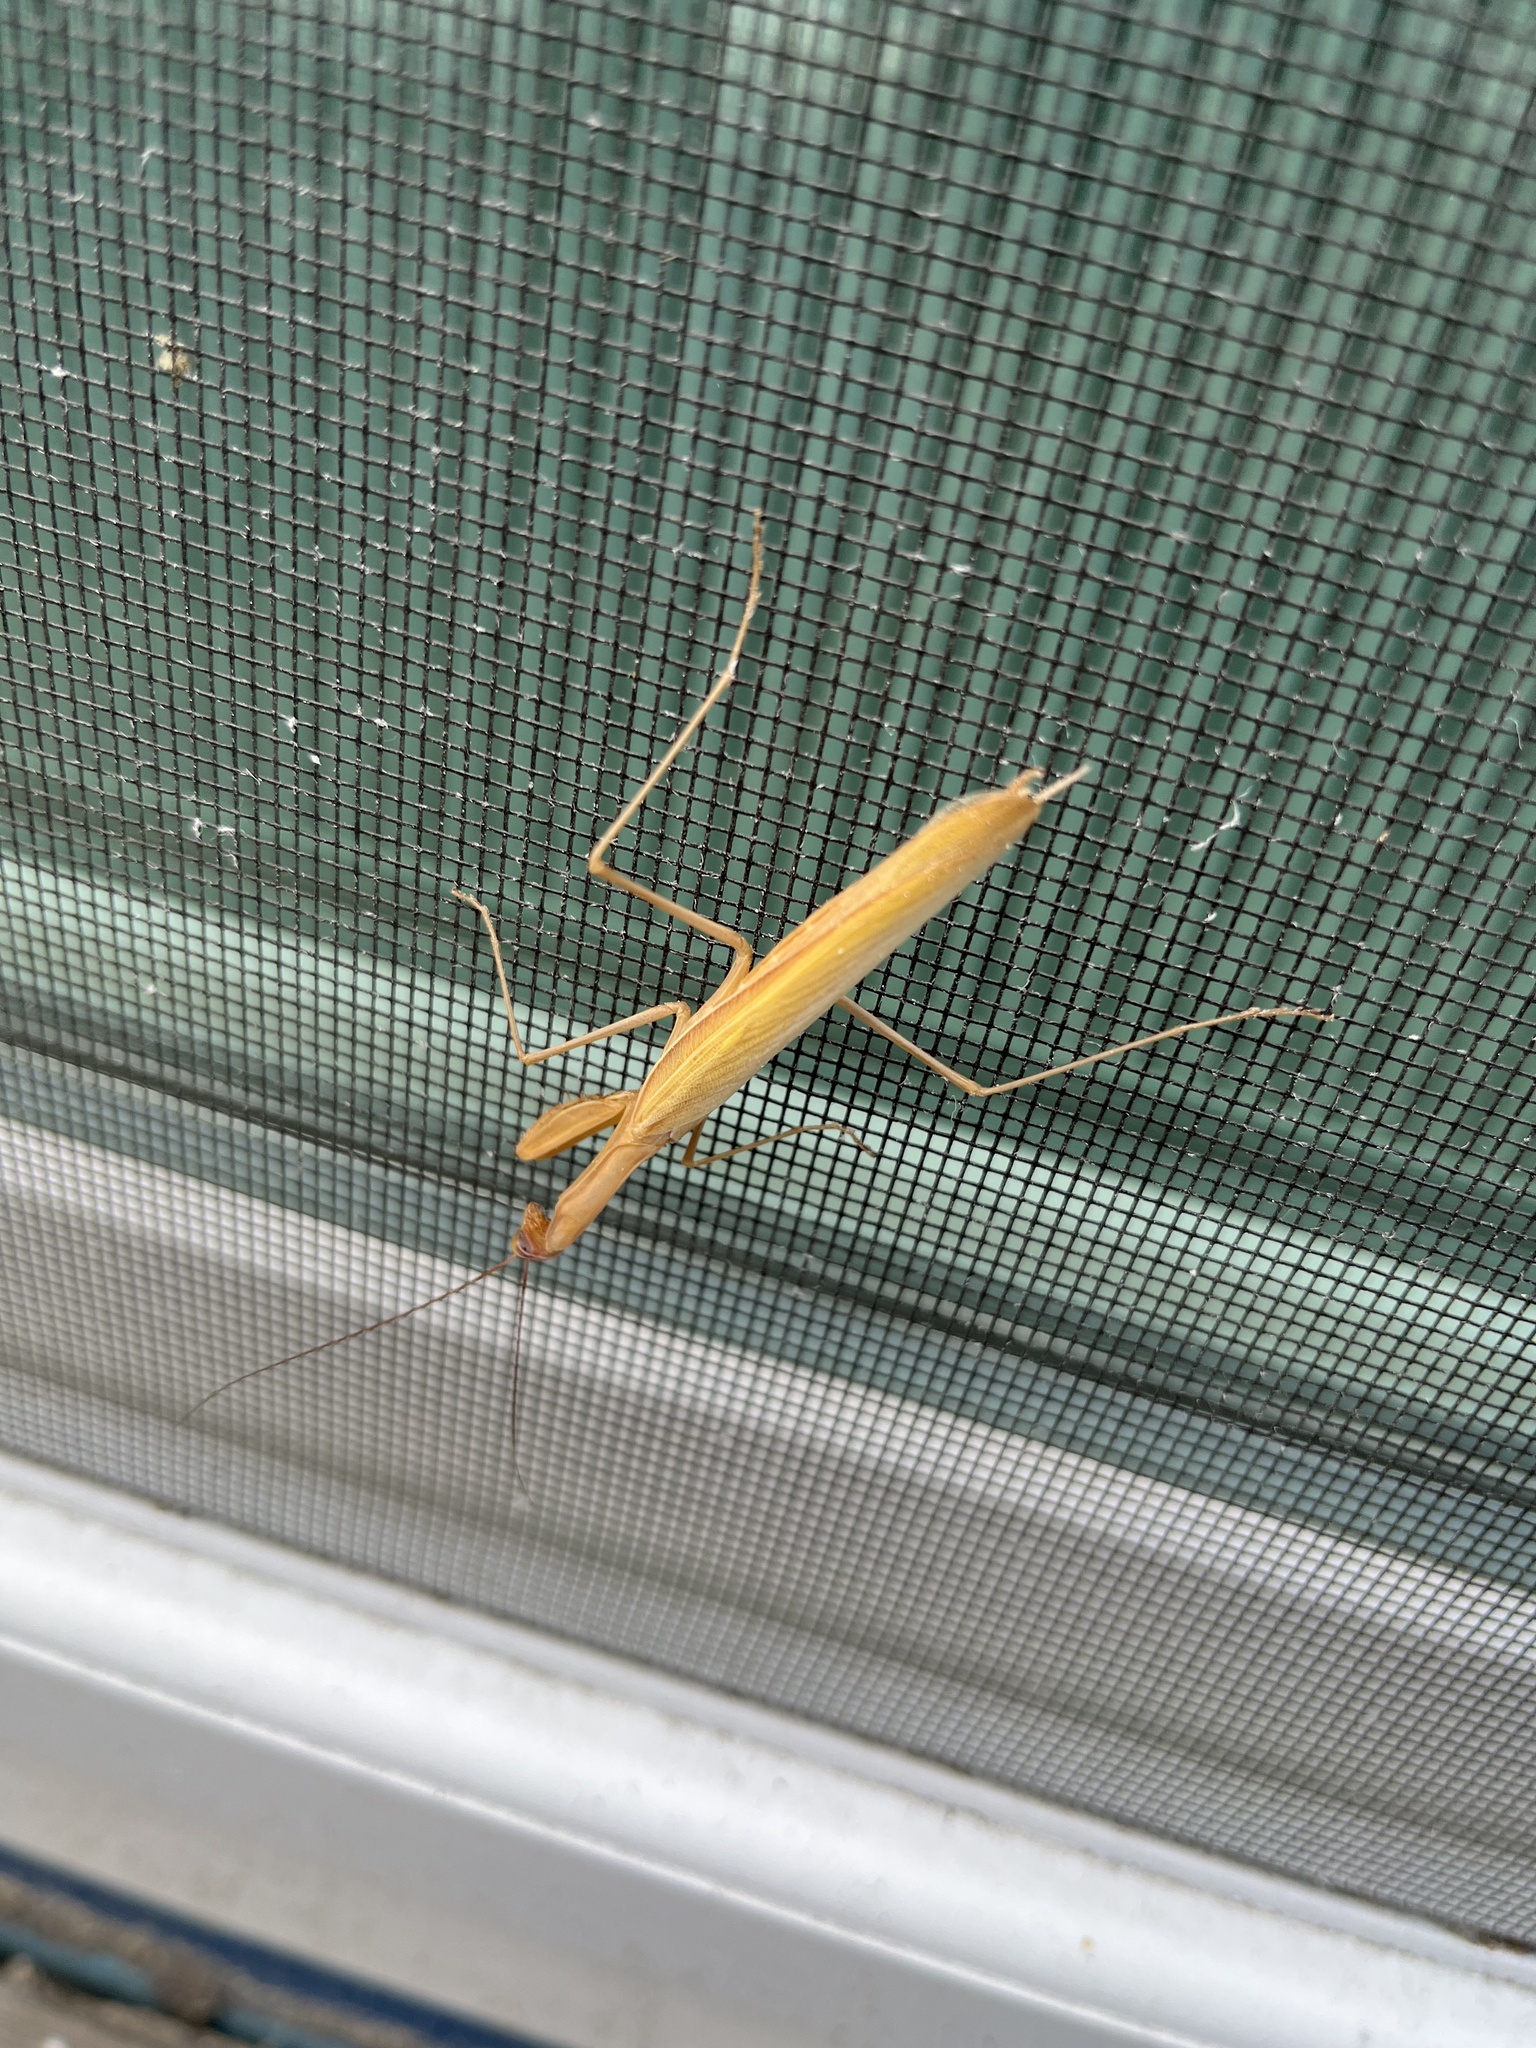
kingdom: Animalia
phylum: Arthropoda
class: Insecta
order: Mantodea
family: Mantidae
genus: Mantis
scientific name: Mantis religiosa
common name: Praying mantis
